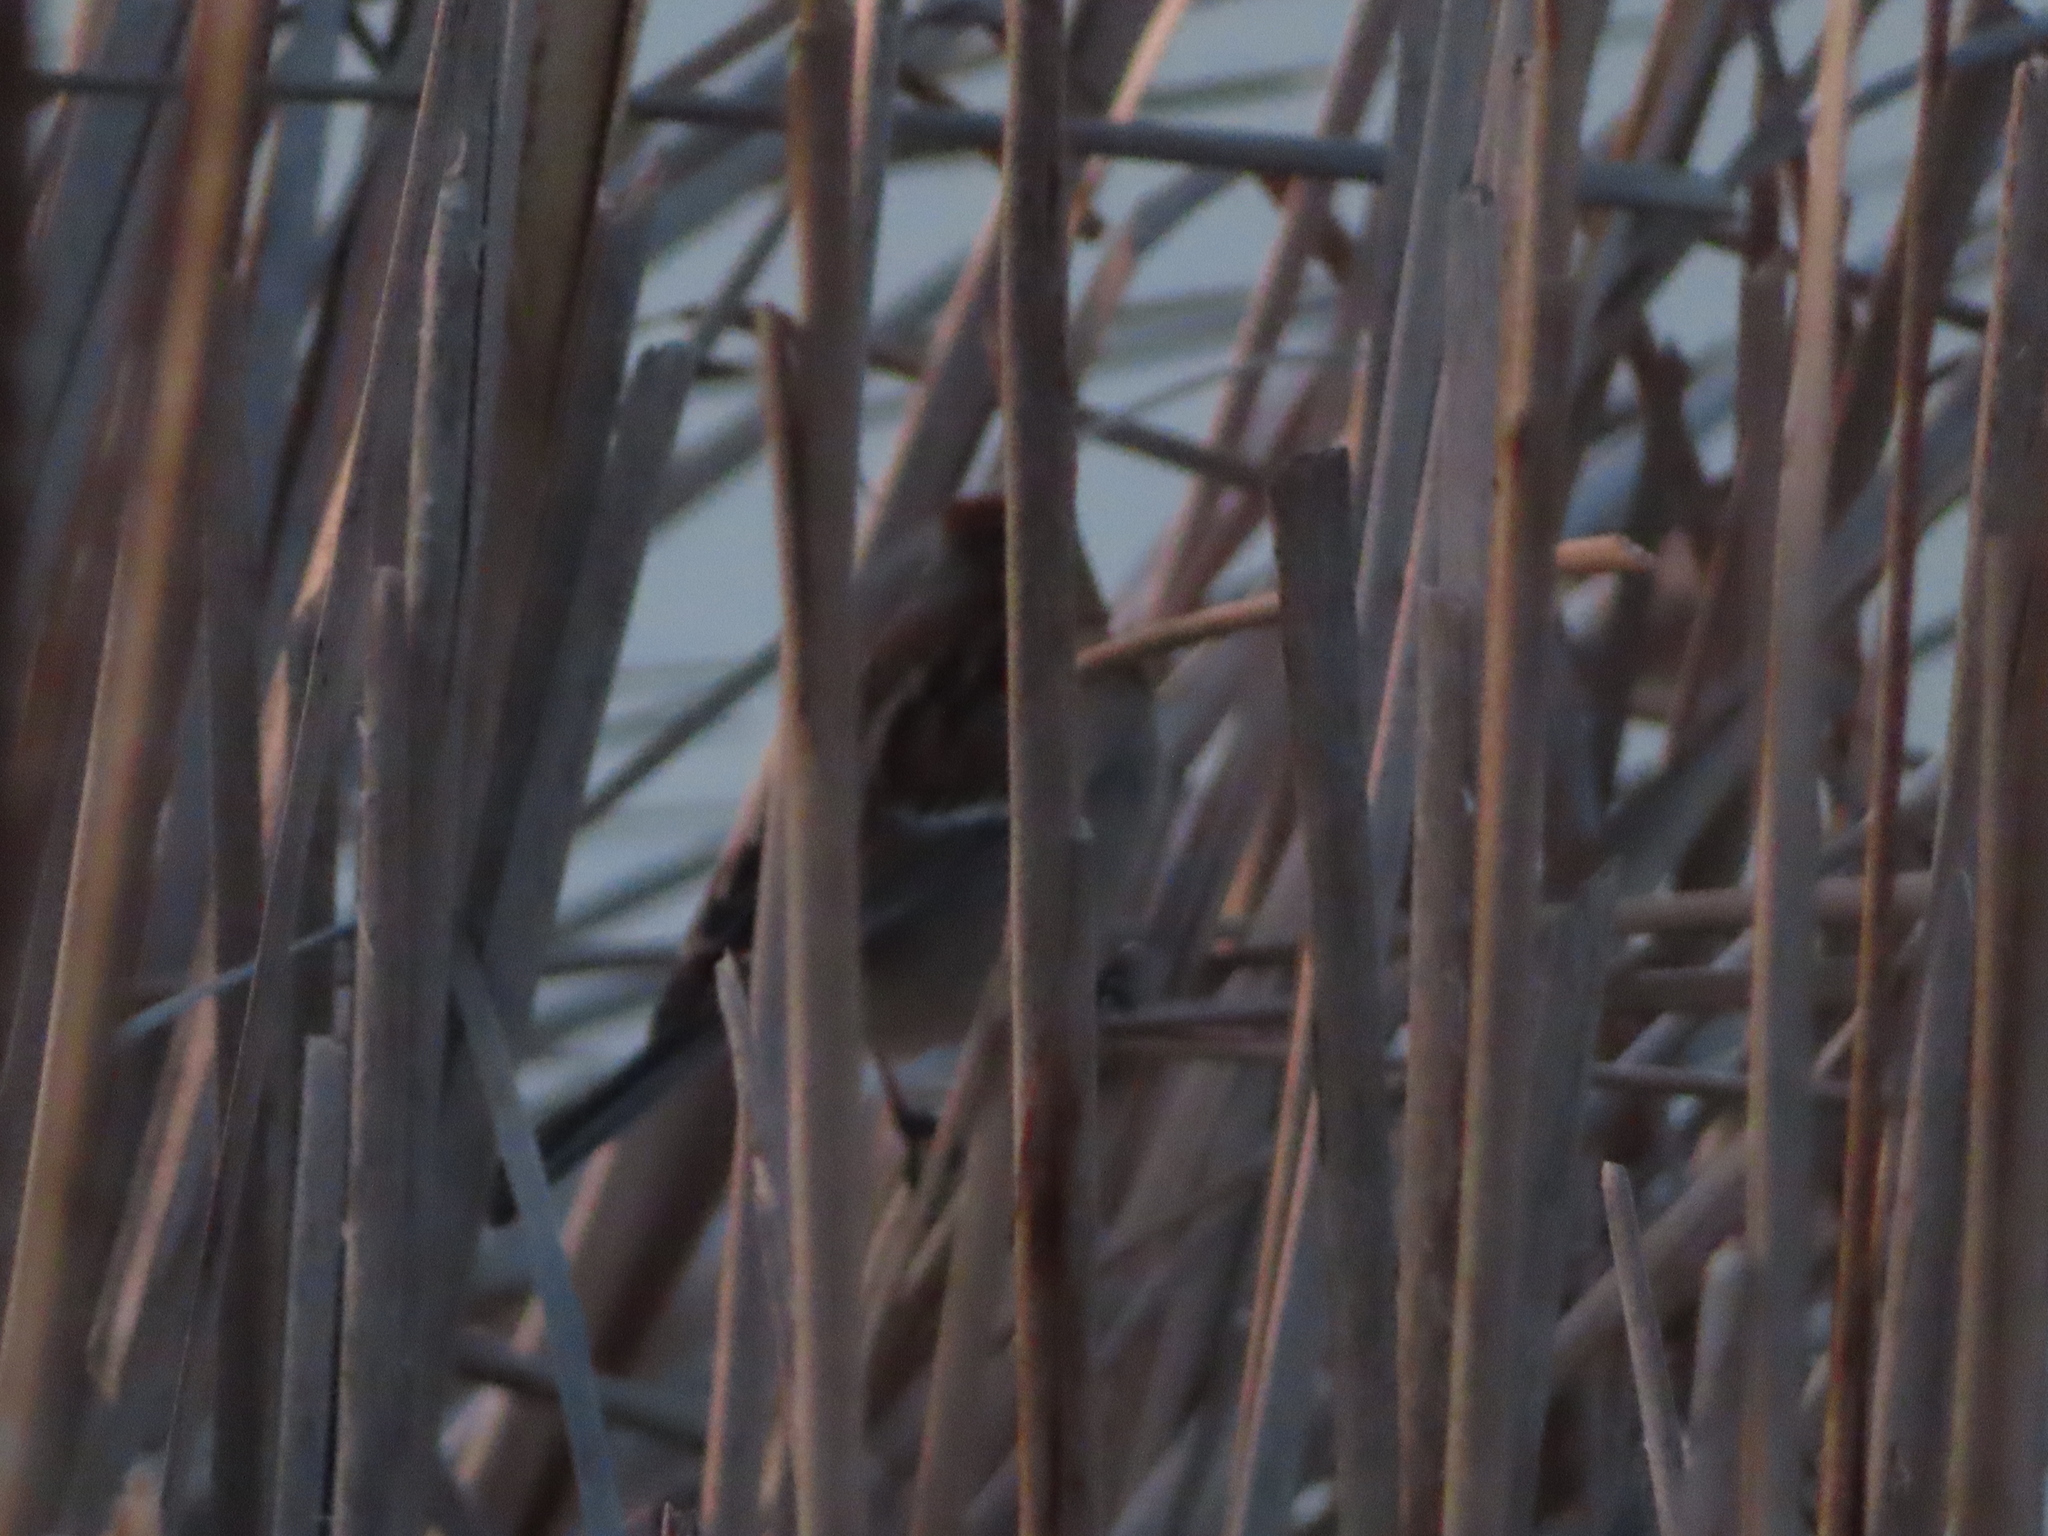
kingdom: Animalia
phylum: Chordata
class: Aves
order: Passeriformes
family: Passerellidae
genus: Spizelloides
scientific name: Spizelloides arborea
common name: American tree sparrow
